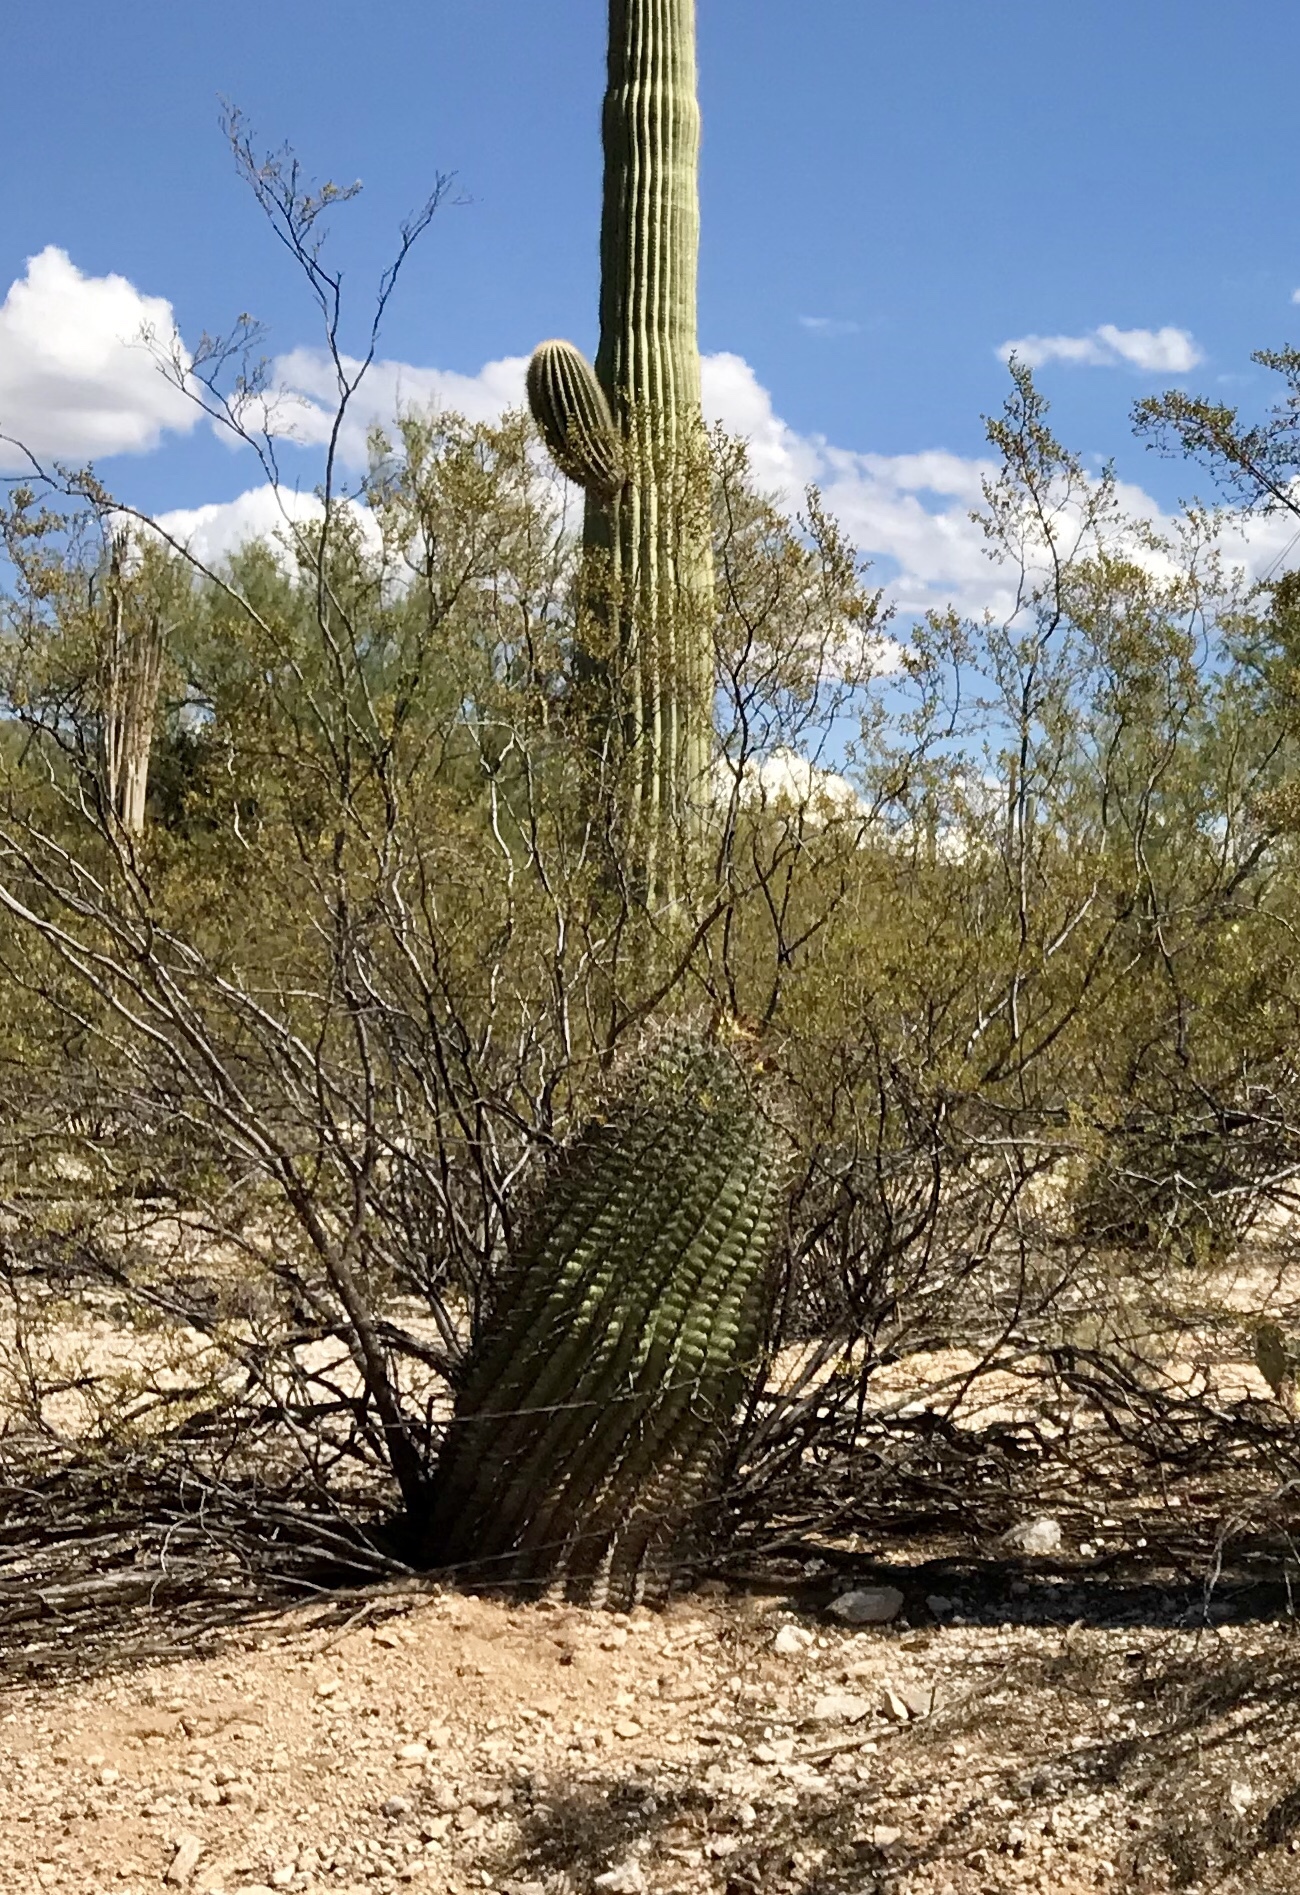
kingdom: Plantae
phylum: Tracheophyta
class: Magnoliopsida
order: Caryophyllales
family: Cactaceae
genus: Ferocactus
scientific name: Ferocactus wislizeni
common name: Candy barrel cactus
